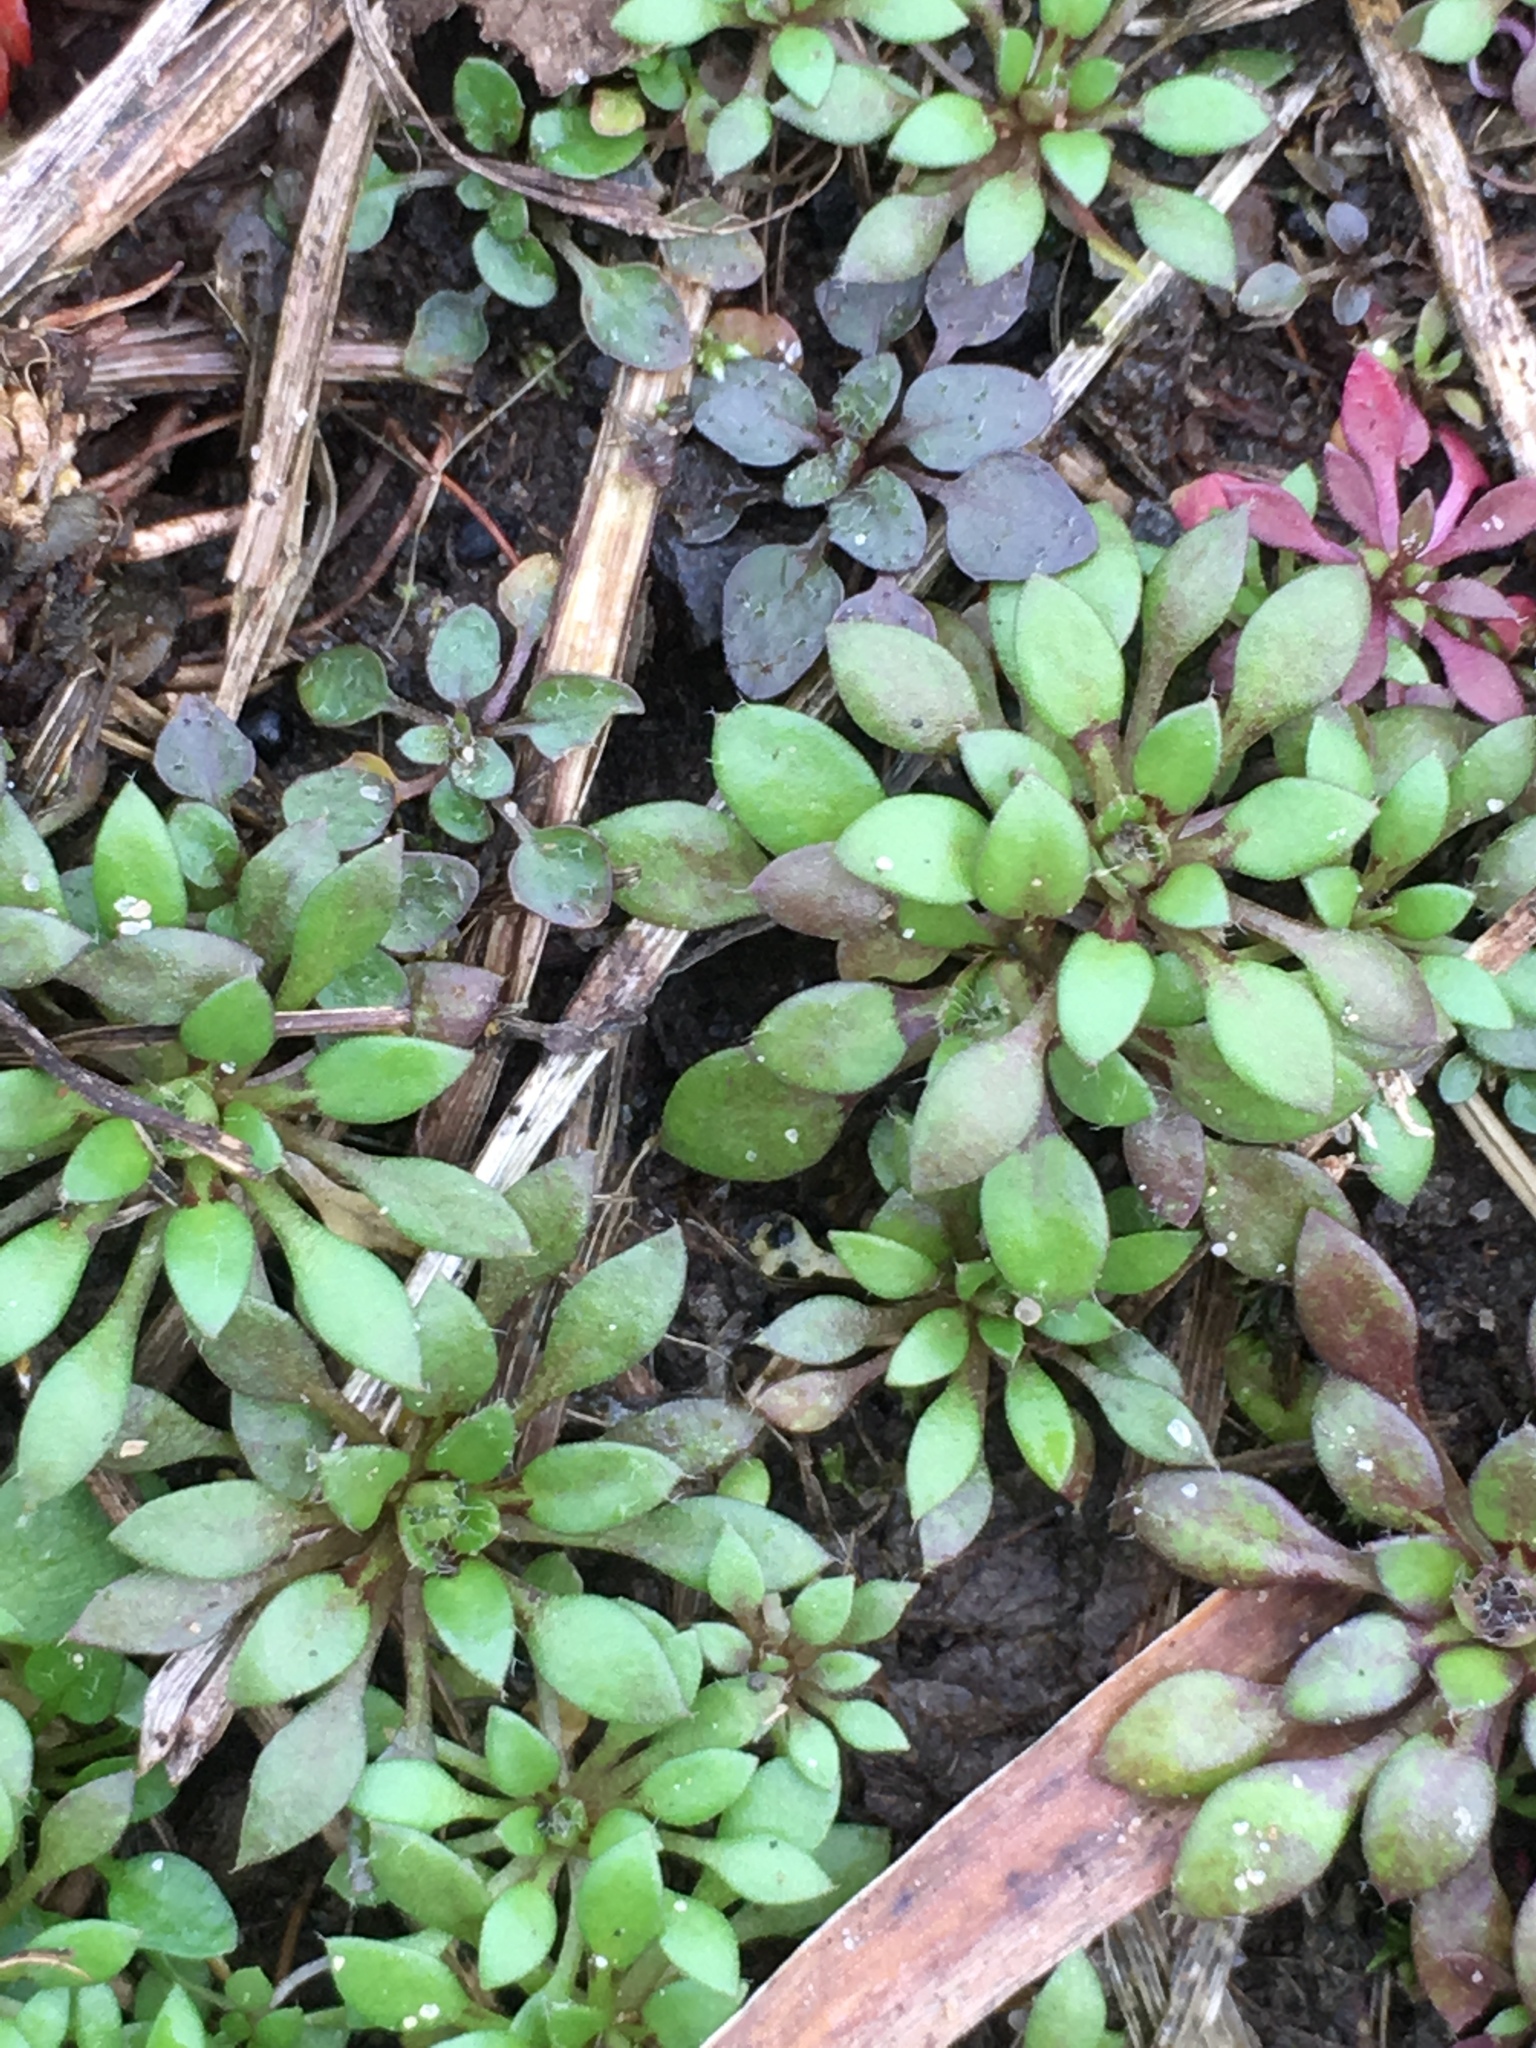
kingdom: Plantae
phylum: Tracheophyta
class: Magnoliopsida
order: Brassicales
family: Brassicaceae
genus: Draba
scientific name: Draba verna
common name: Spring draba
